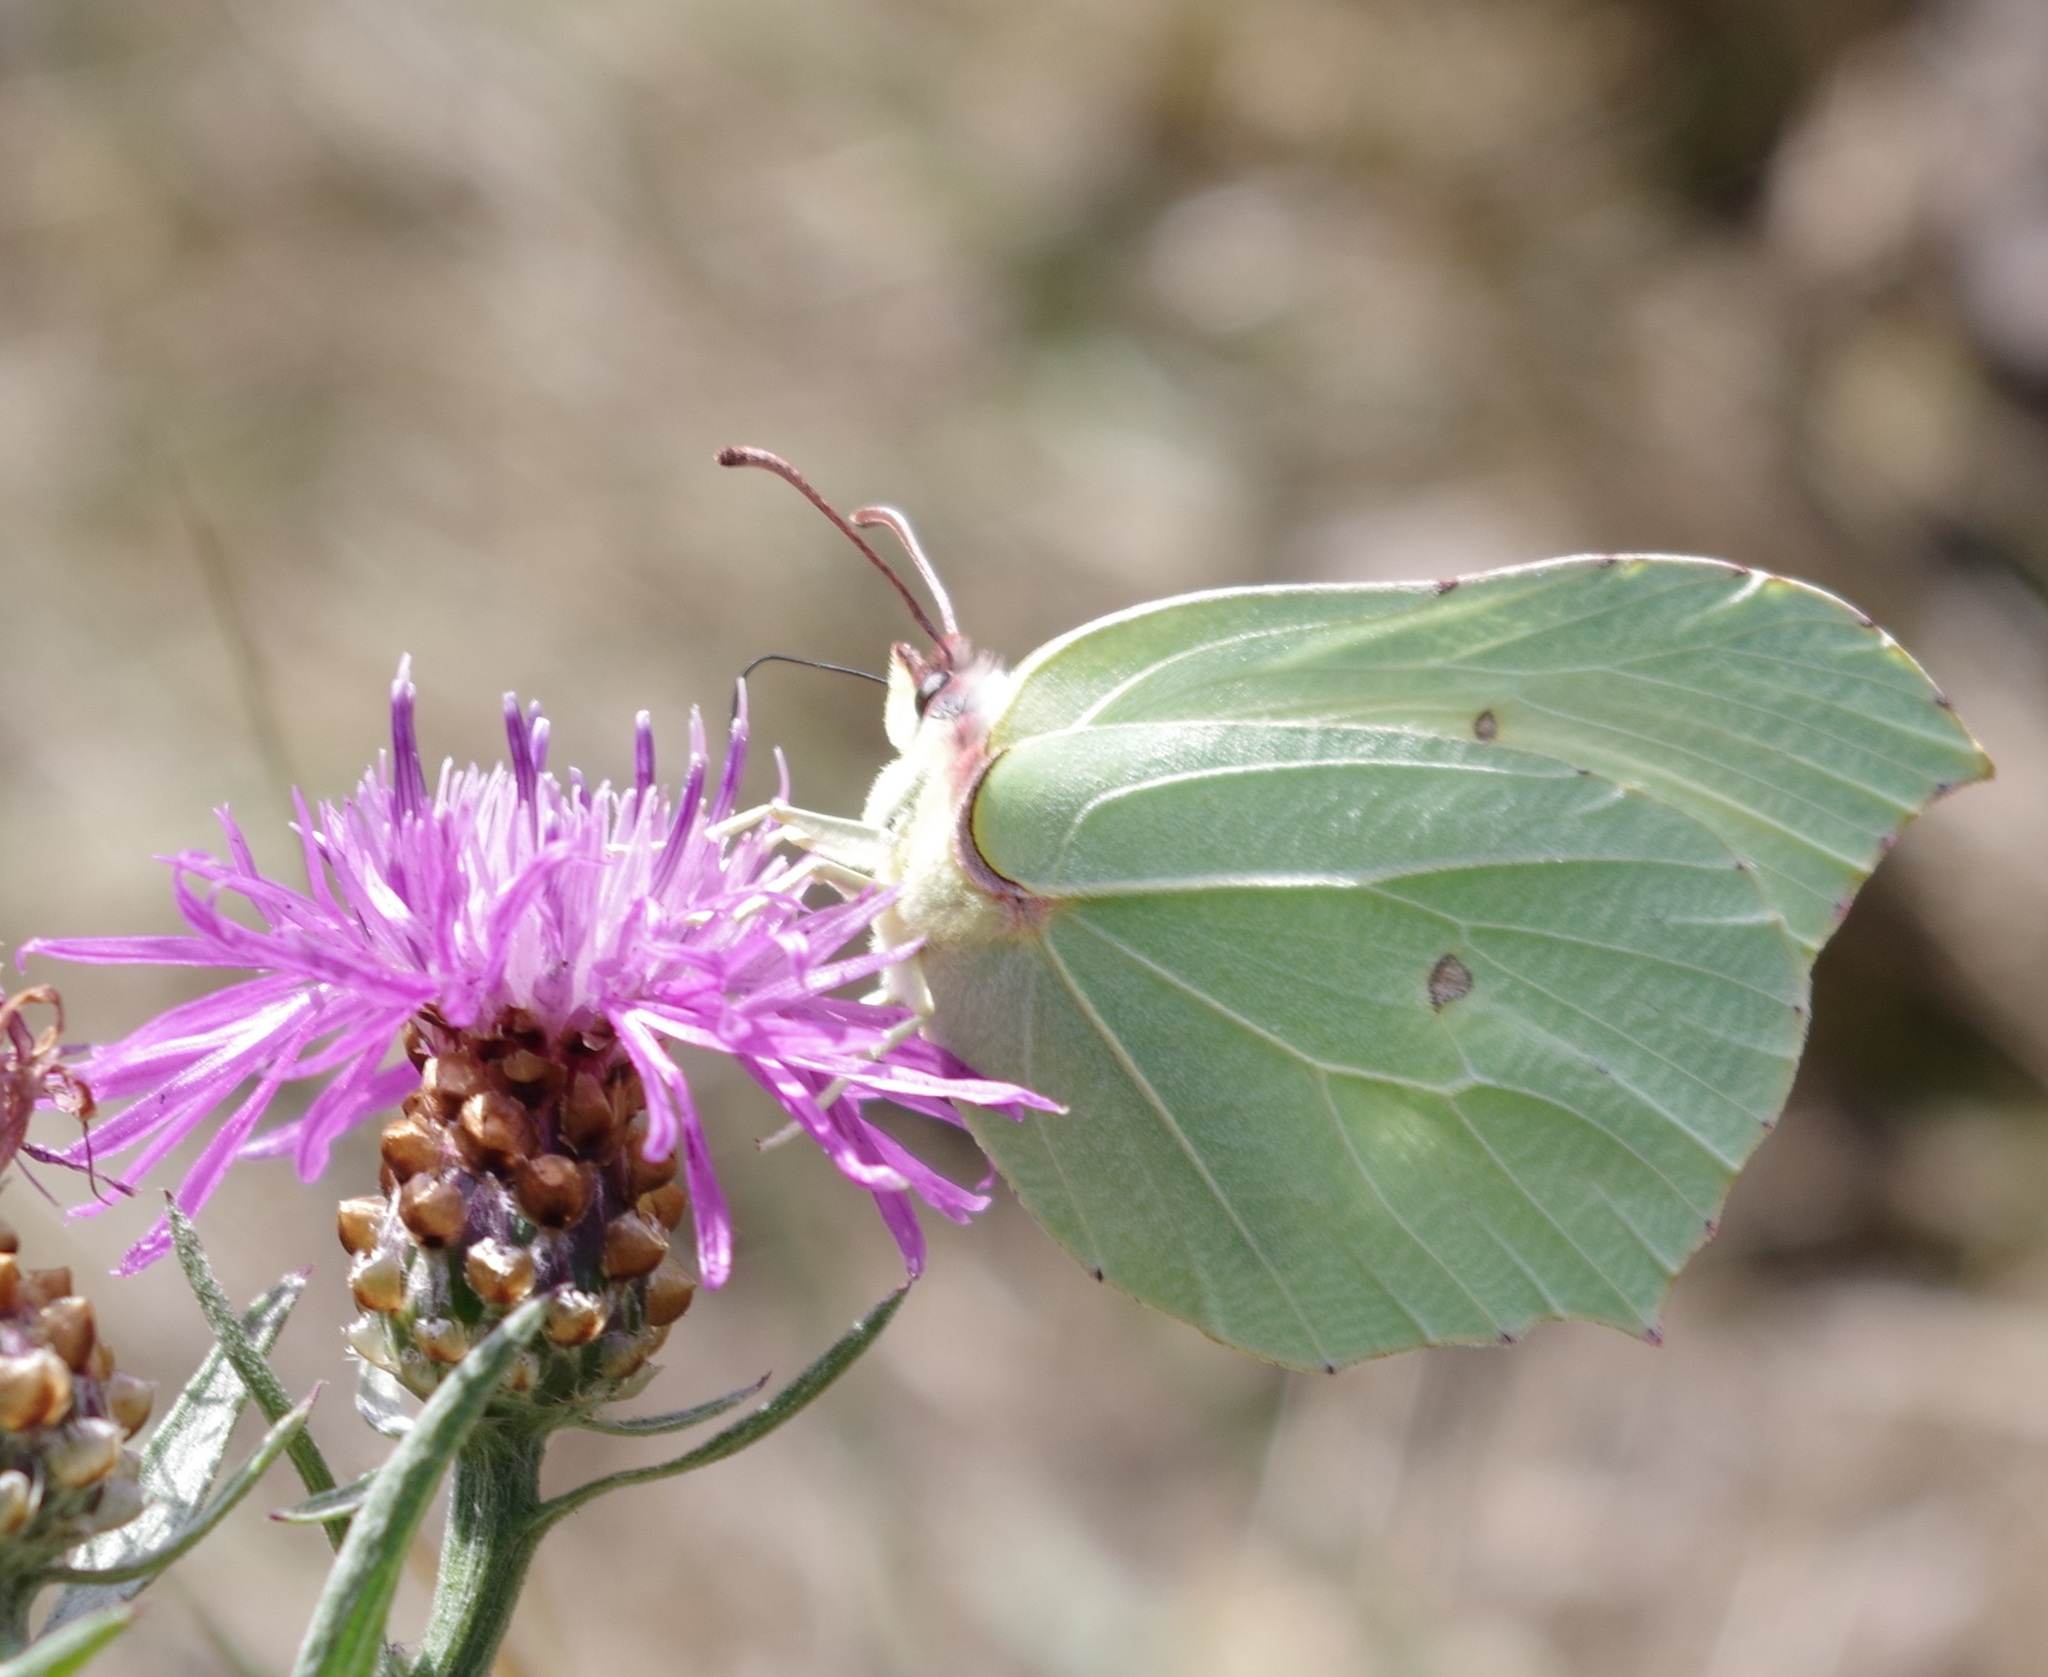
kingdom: Animalia
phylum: Arthropoda
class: Insecta
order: Lepidoptera
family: Pieridae
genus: Gonepteryx
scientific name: Gonepteryx rhamni
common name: Brimstone
